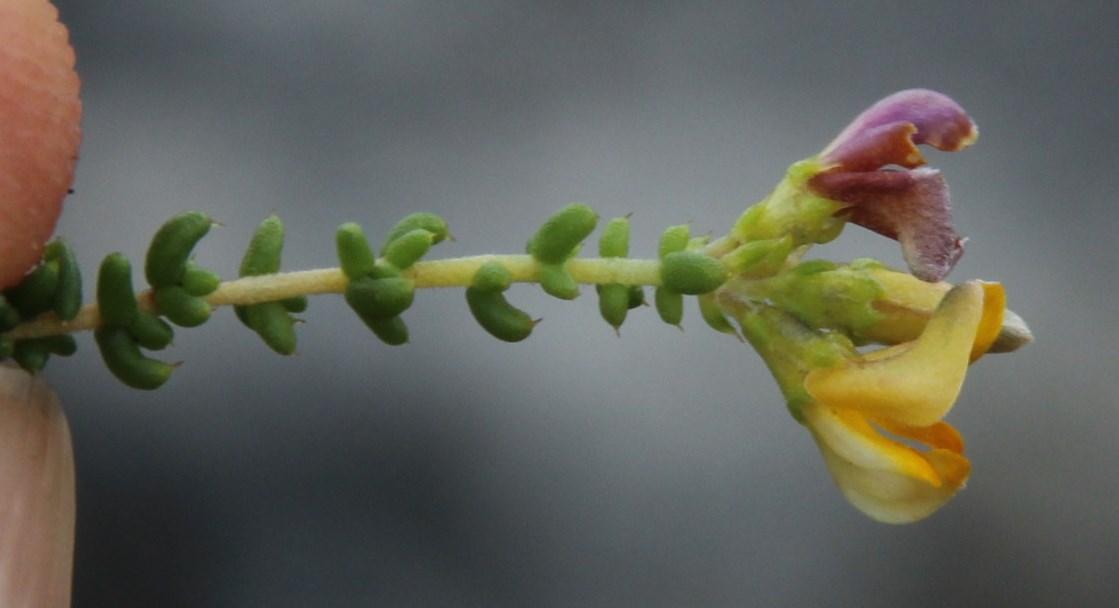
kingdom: Plantae
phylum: Tracheophyta
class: Magnoliopsida
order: Fabales
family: Fabaceae
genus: Aspalathus
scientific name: Aspalathus divaricata
